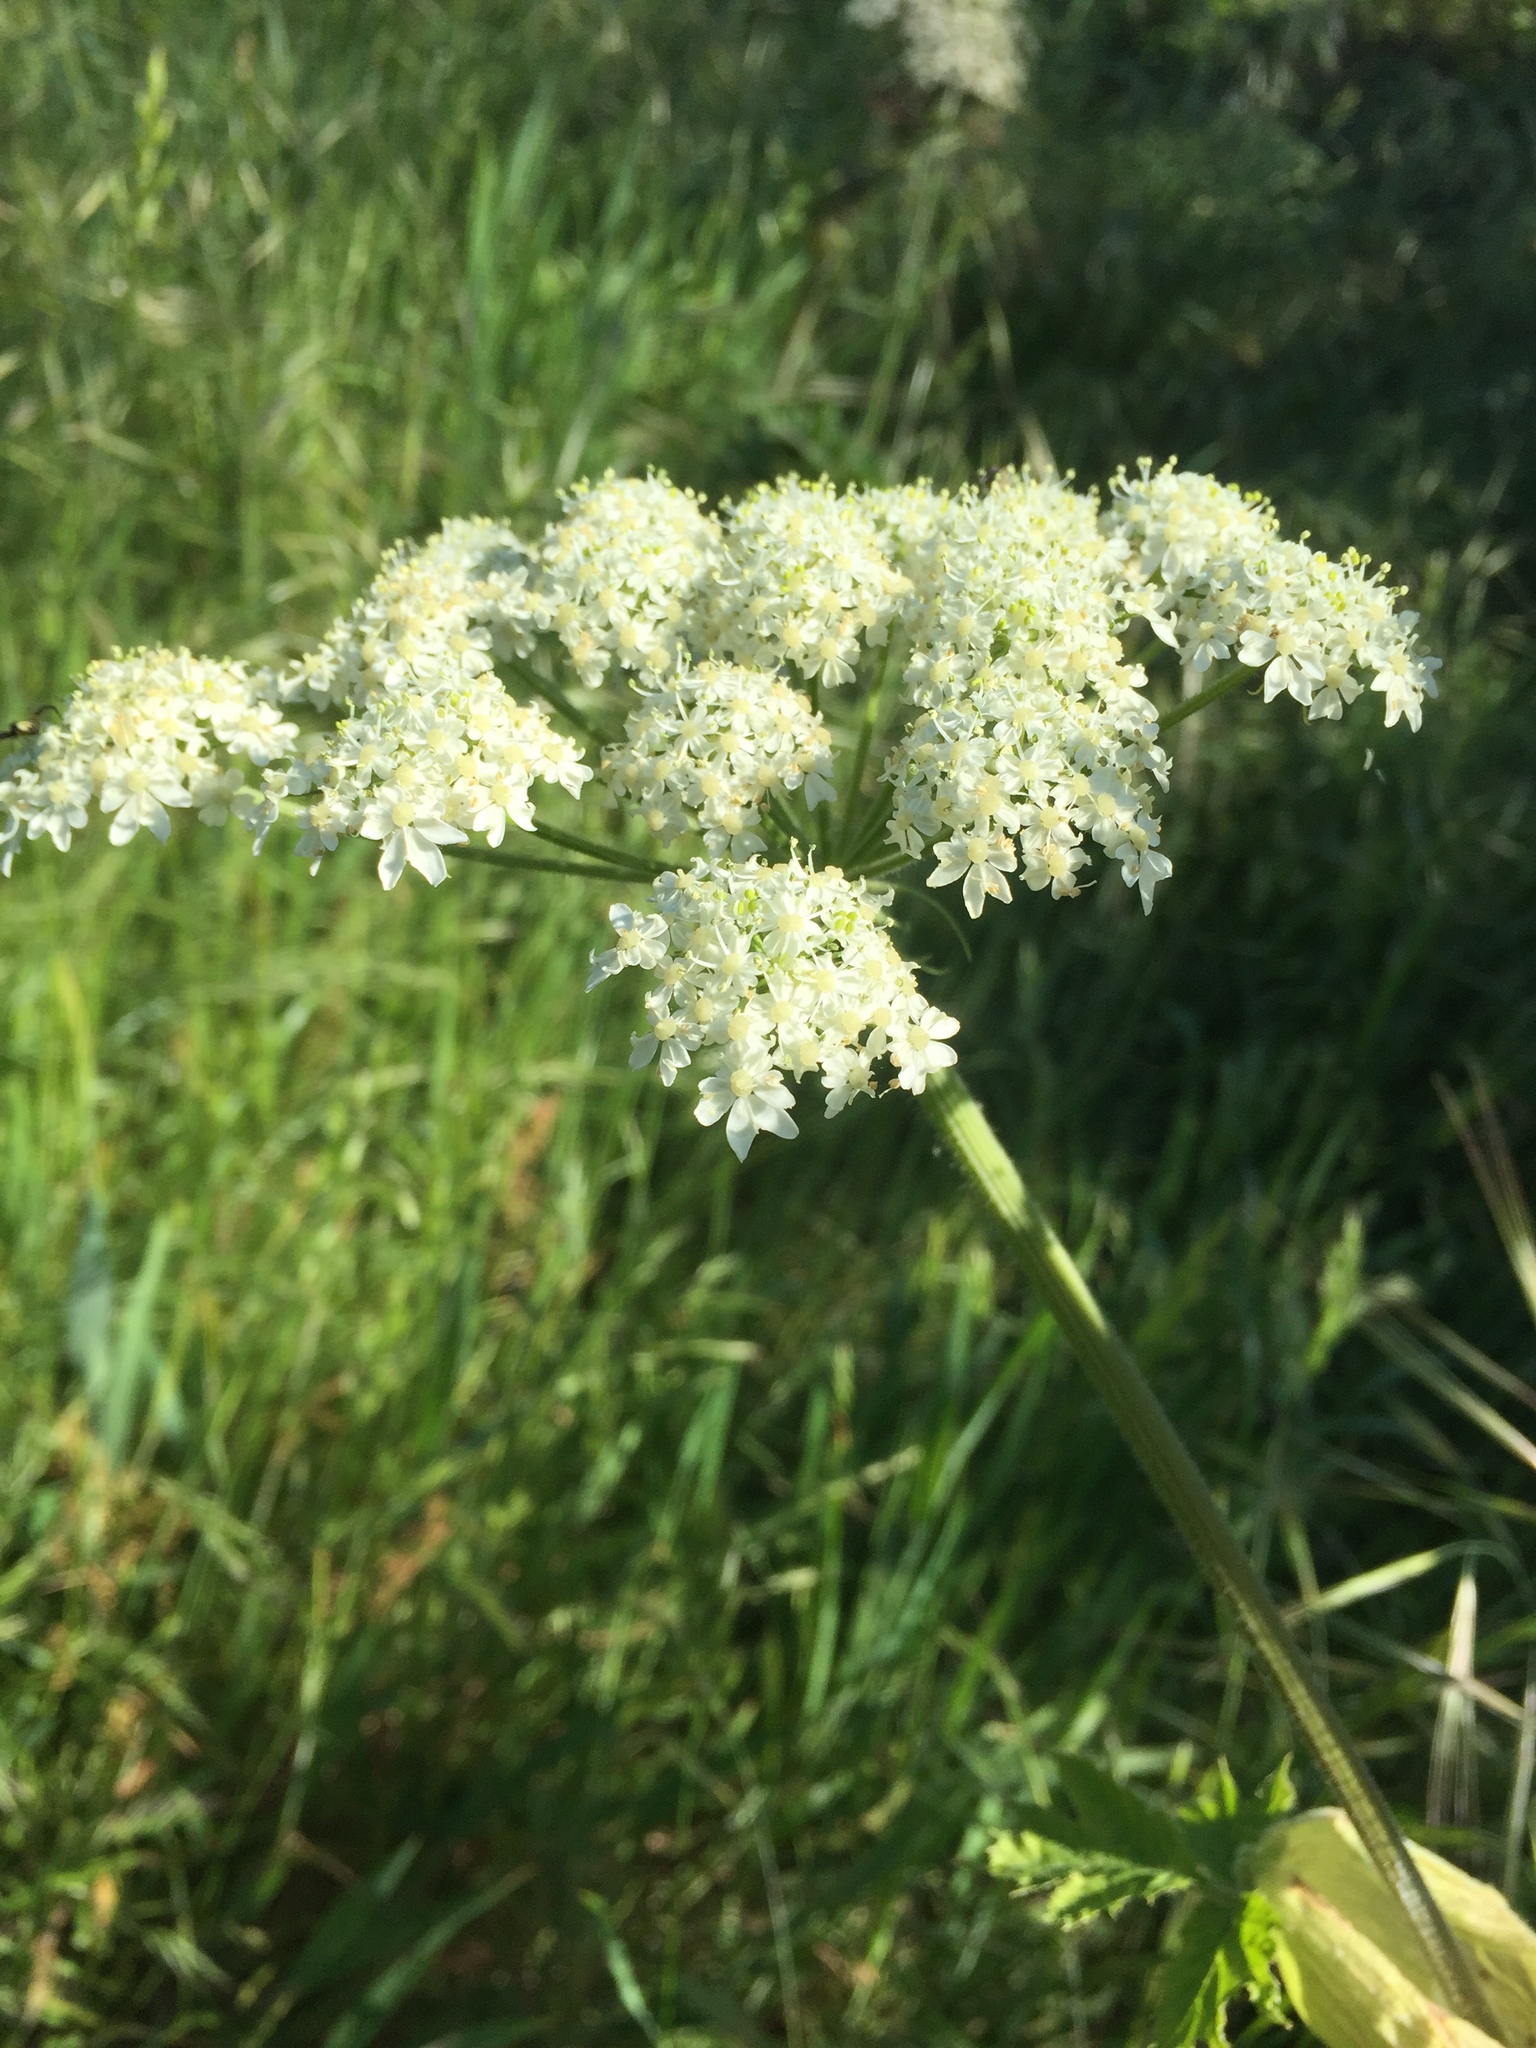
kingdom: Plantae
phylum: Tracheophyta
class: Magnoliopsida
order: Apiales
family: Apiaceae
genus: Heracleum
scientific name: Heracleum maximum
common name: American cow parsnip
